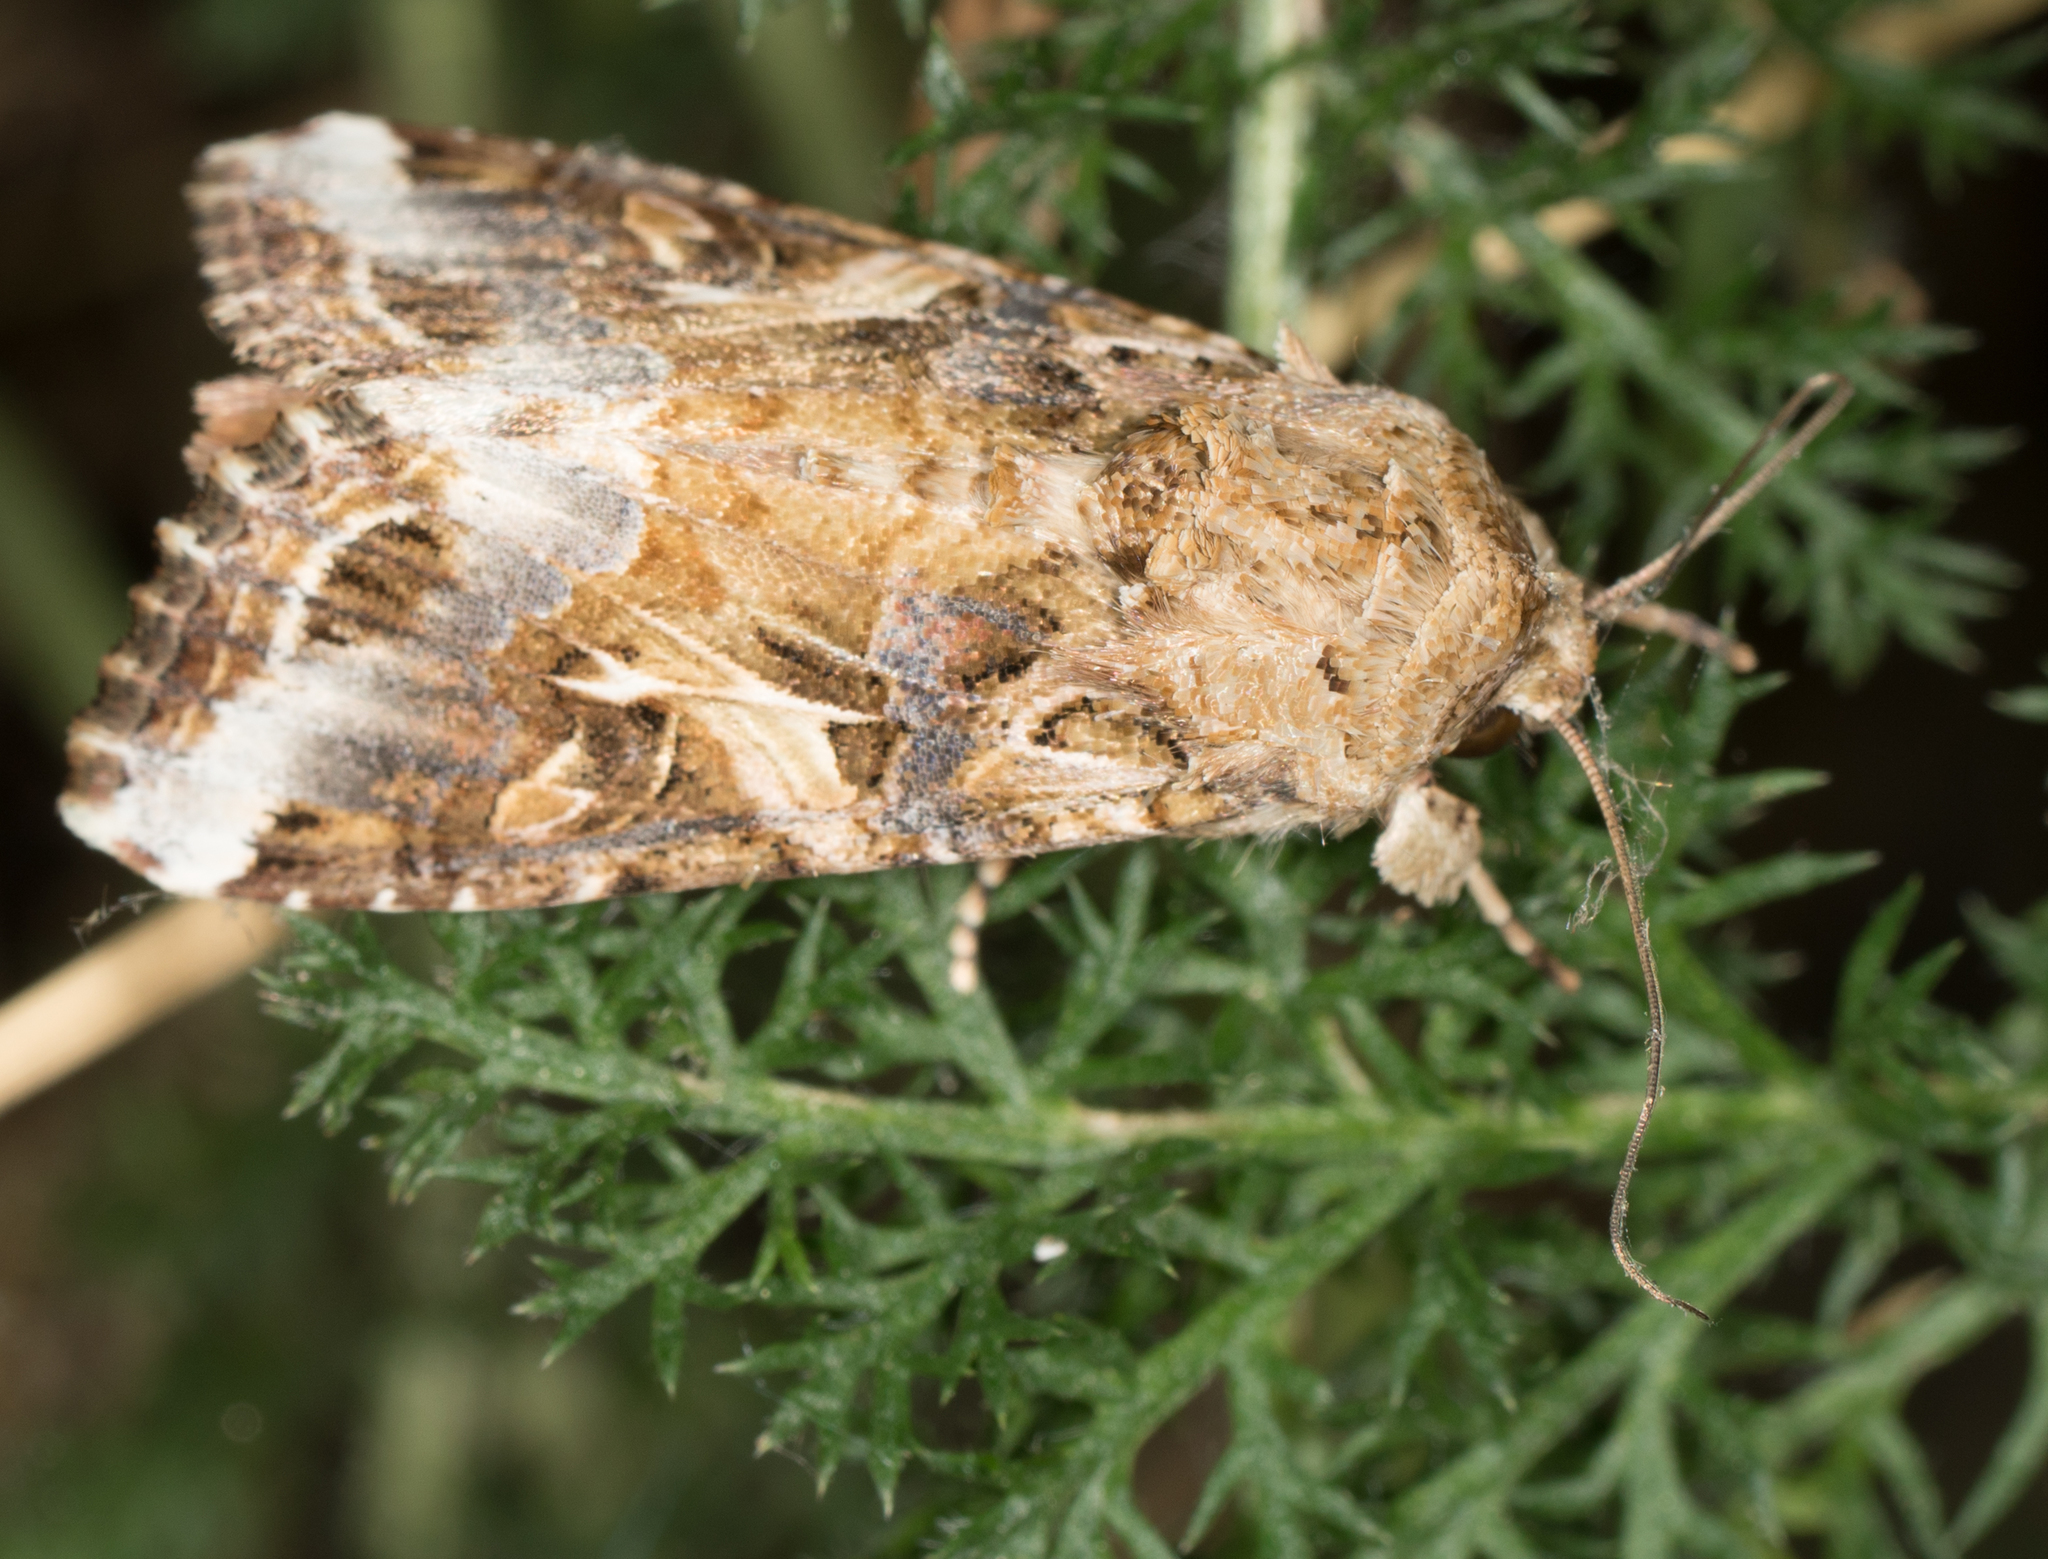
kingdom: Animalia
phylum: Arthropoda
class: Insecta
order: Lepidoptera
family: Noctuidae
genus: Spodoptera
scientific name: Spodoptera ornithogalli
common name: Yellow-striped armyworm
